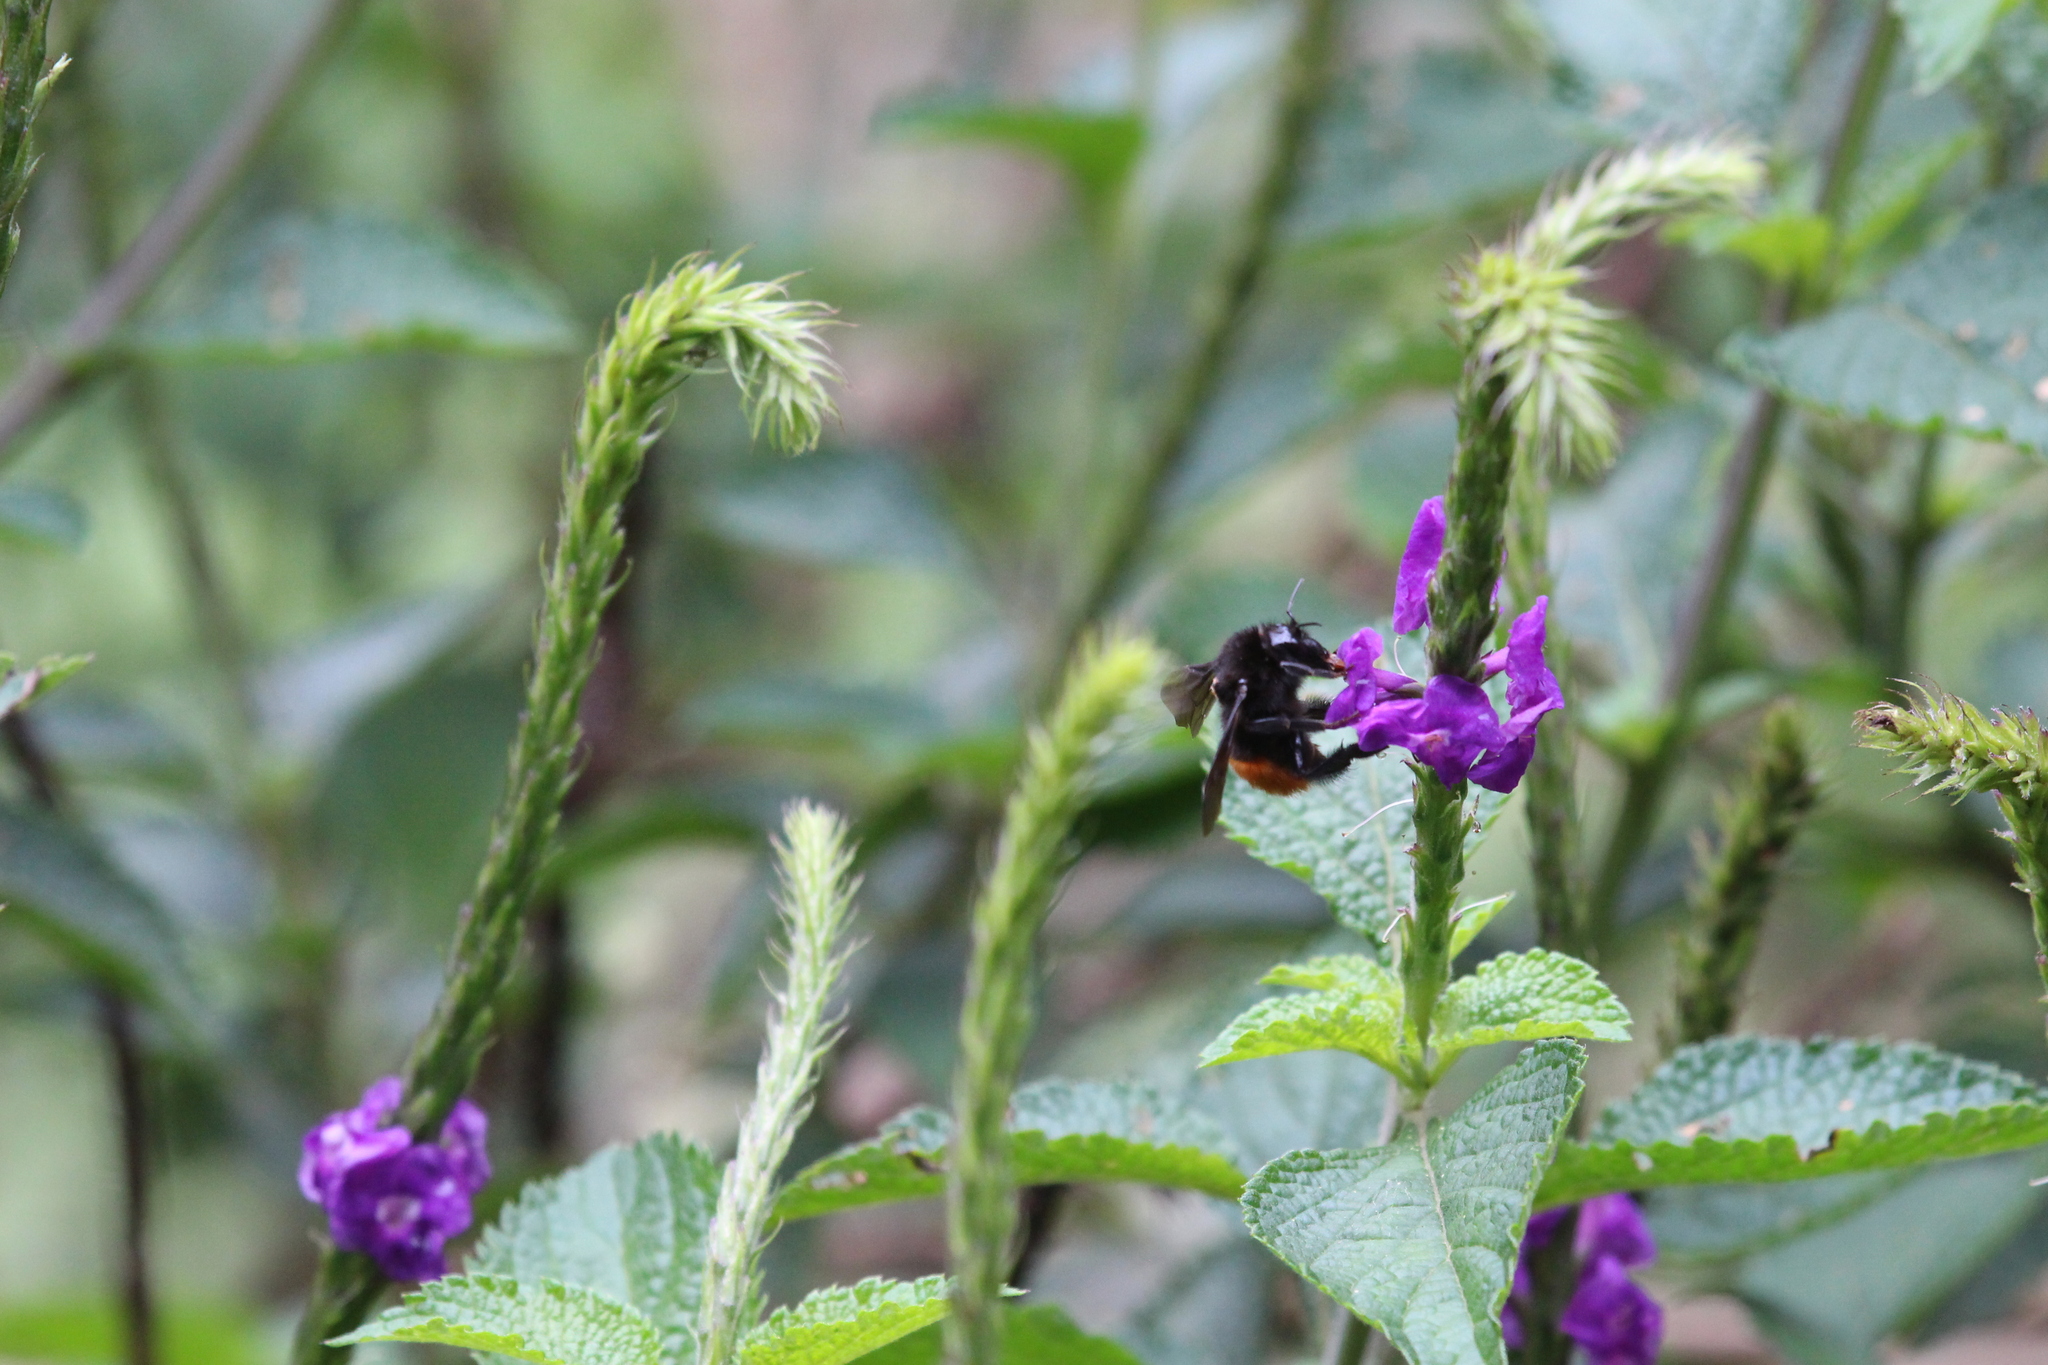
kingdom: Animalia
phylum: Arthropoda
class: Insecta
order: Hymenoptera
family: Apidae
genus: Bombus
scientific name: Bombus excellens
